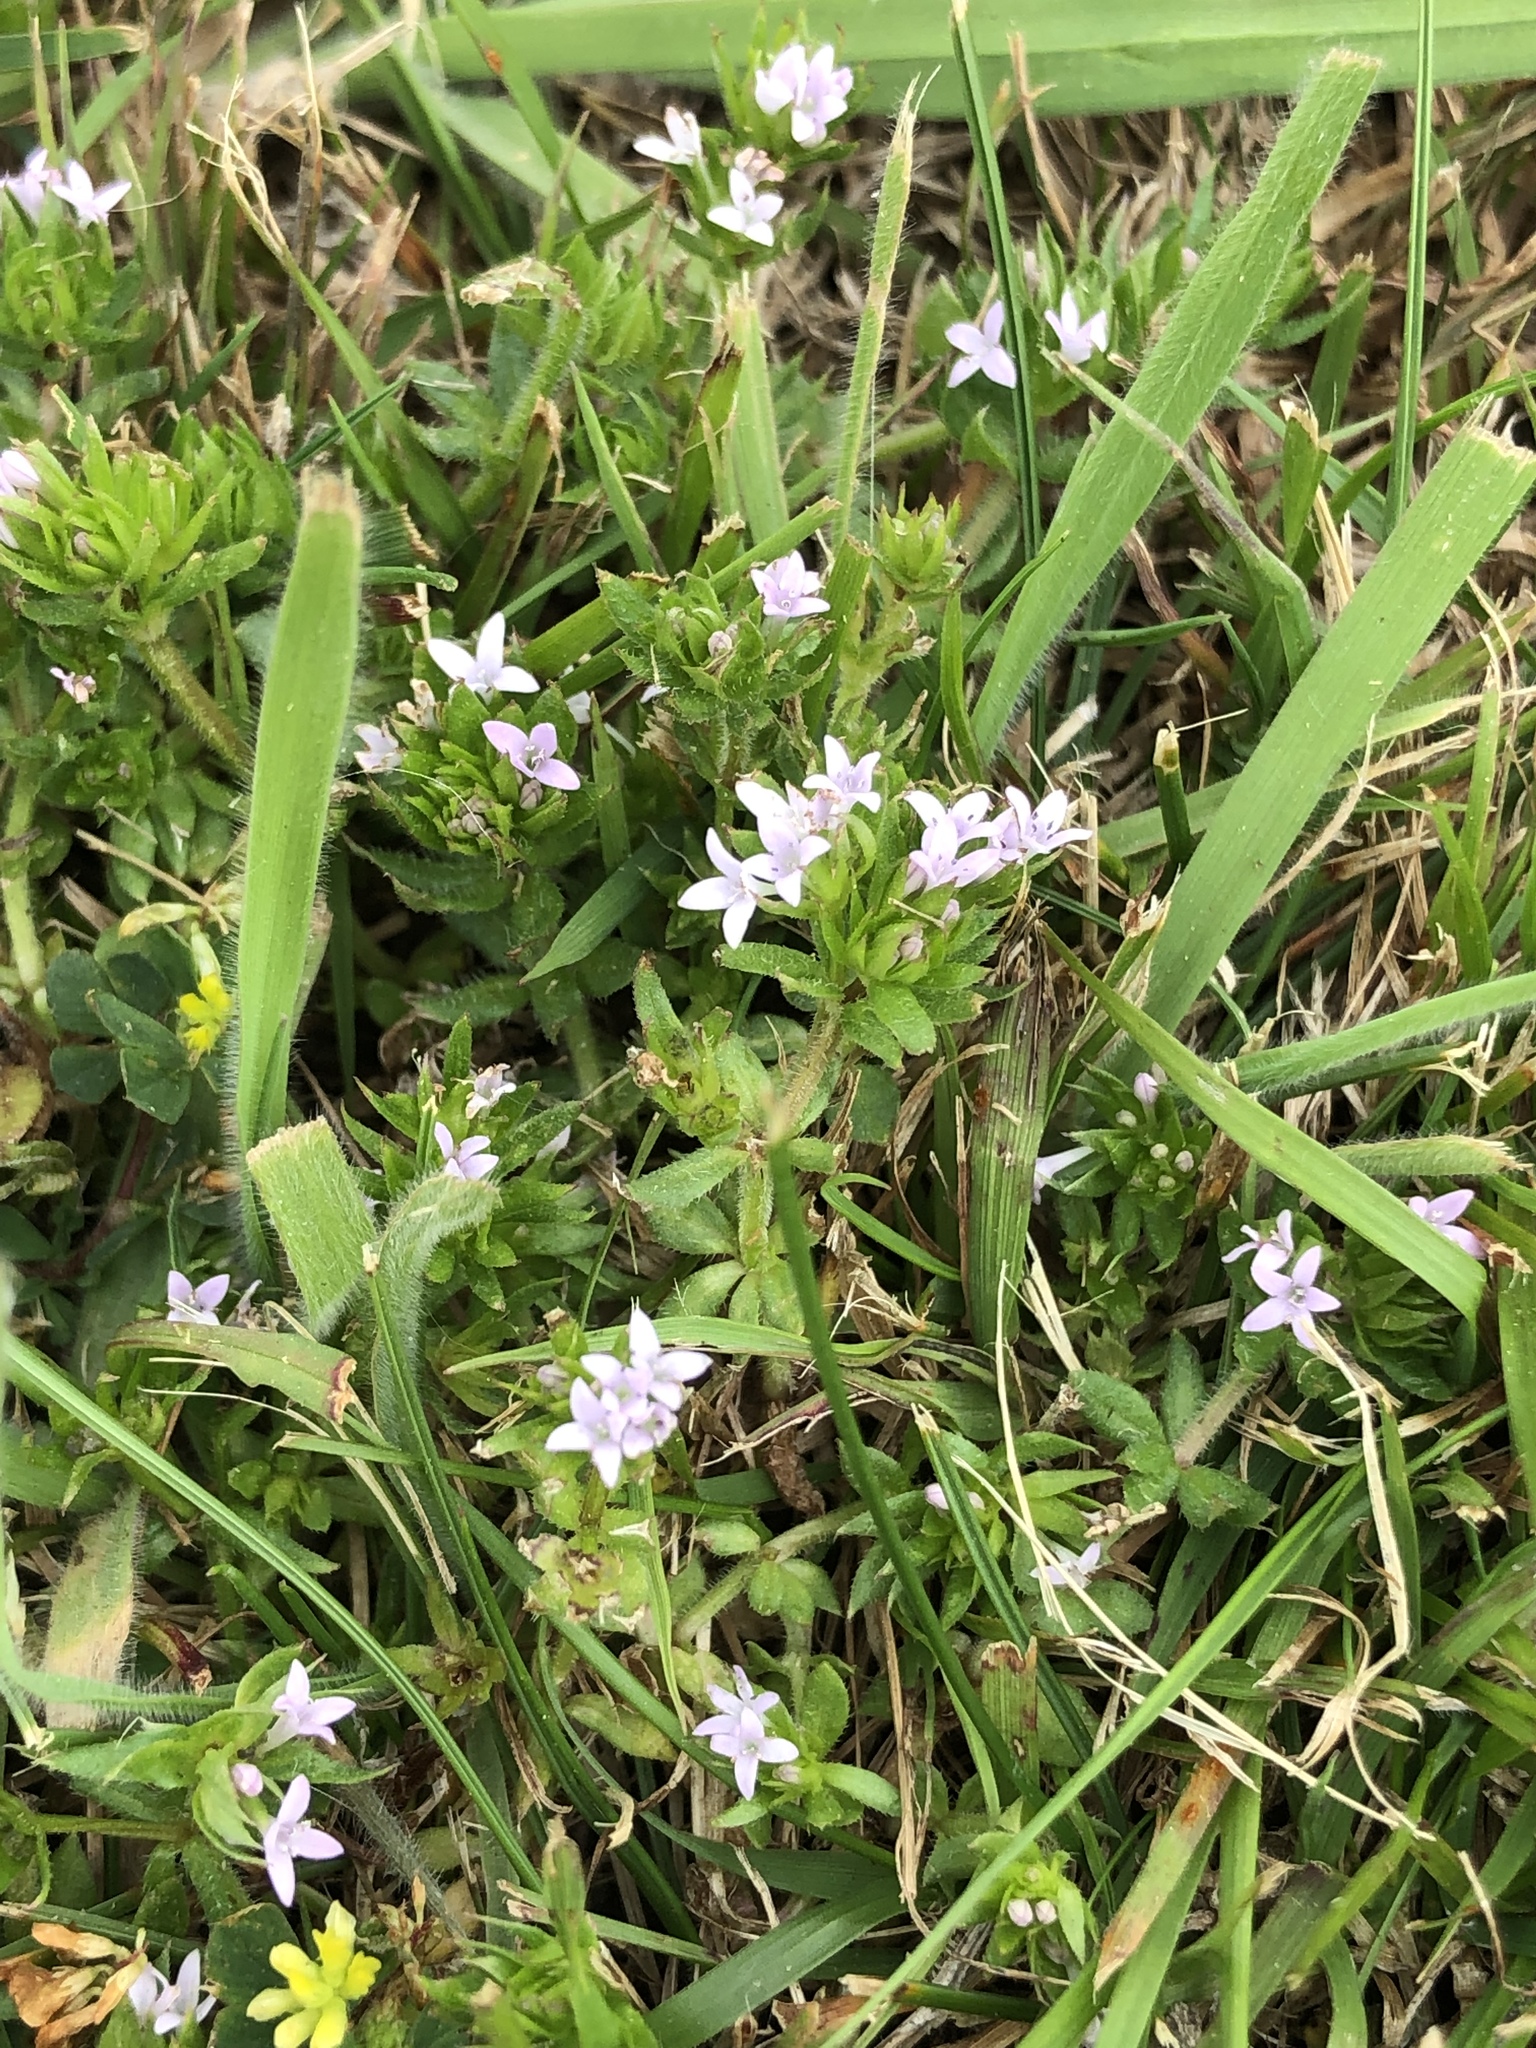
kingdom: Plantae
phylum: Tracheophyta
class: Magnoliopsida
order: Gentianales
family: Rubiaceae
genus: Sherardia
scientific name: Sherardia arvensis
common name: Field madder
